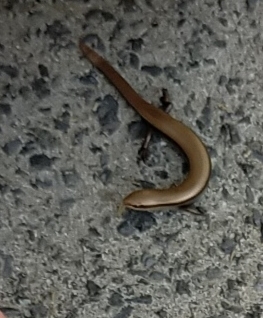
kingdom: Animalia
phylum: Chordata
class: Squamata
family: Scincidae
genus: Ablepharus
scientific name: Ablepharus kitaibelii
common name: Juniper skink
